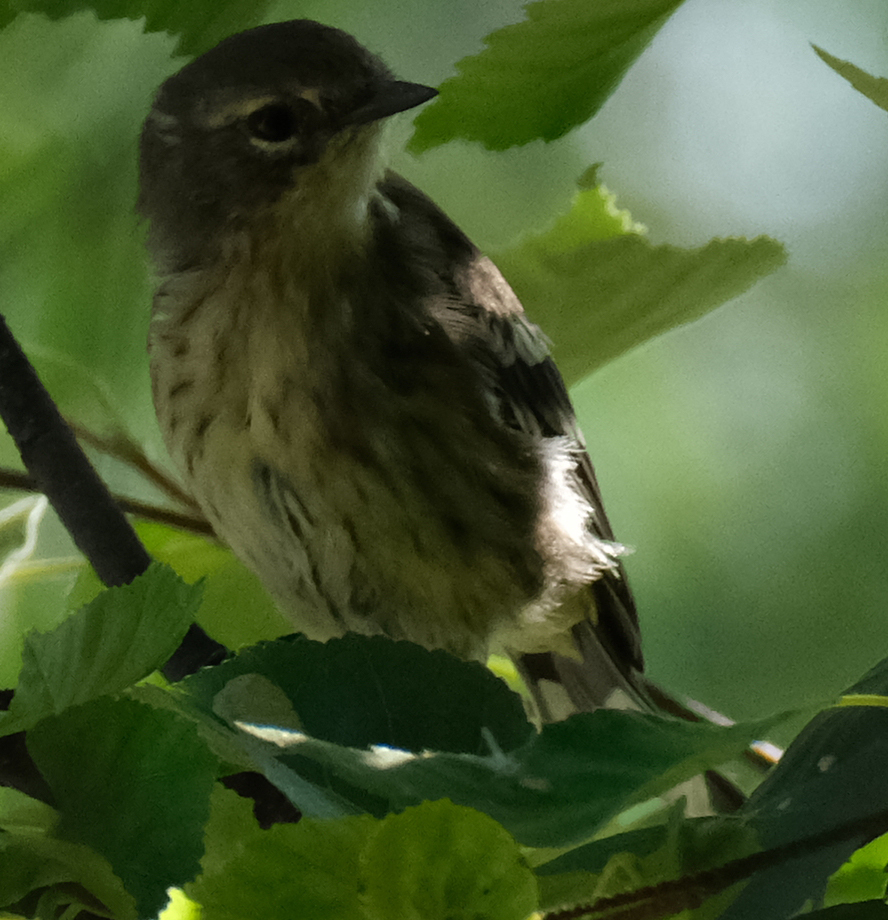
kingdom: Animalia
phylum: Chordata
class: Aves
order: Passeriformes
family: Parulidae
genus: Setophaga
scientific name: Setophaga coronata
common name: Myrtle warbler
